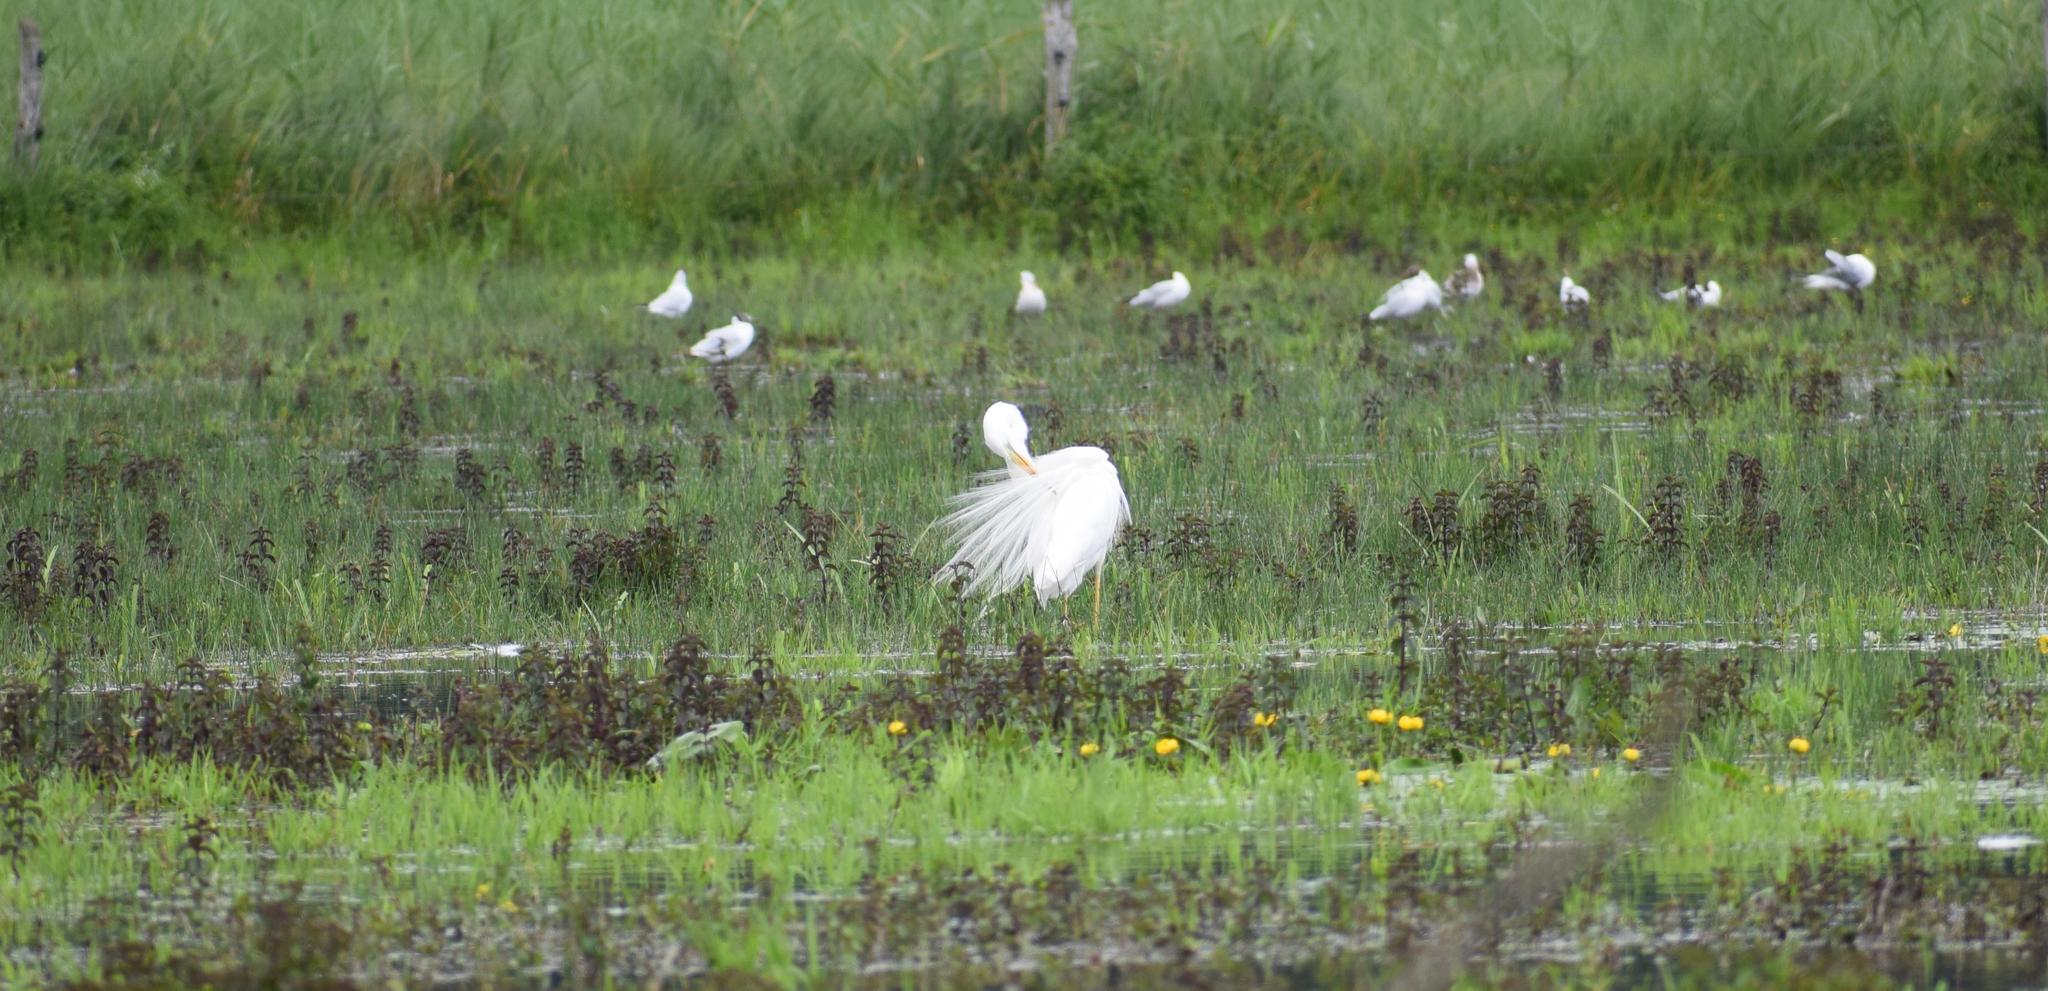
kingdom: Animalia
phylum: Chordata
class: Aves
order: Pelecaniformes
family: Ardeidae
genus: Ardea
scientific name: Ardea alba
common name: Great egret
